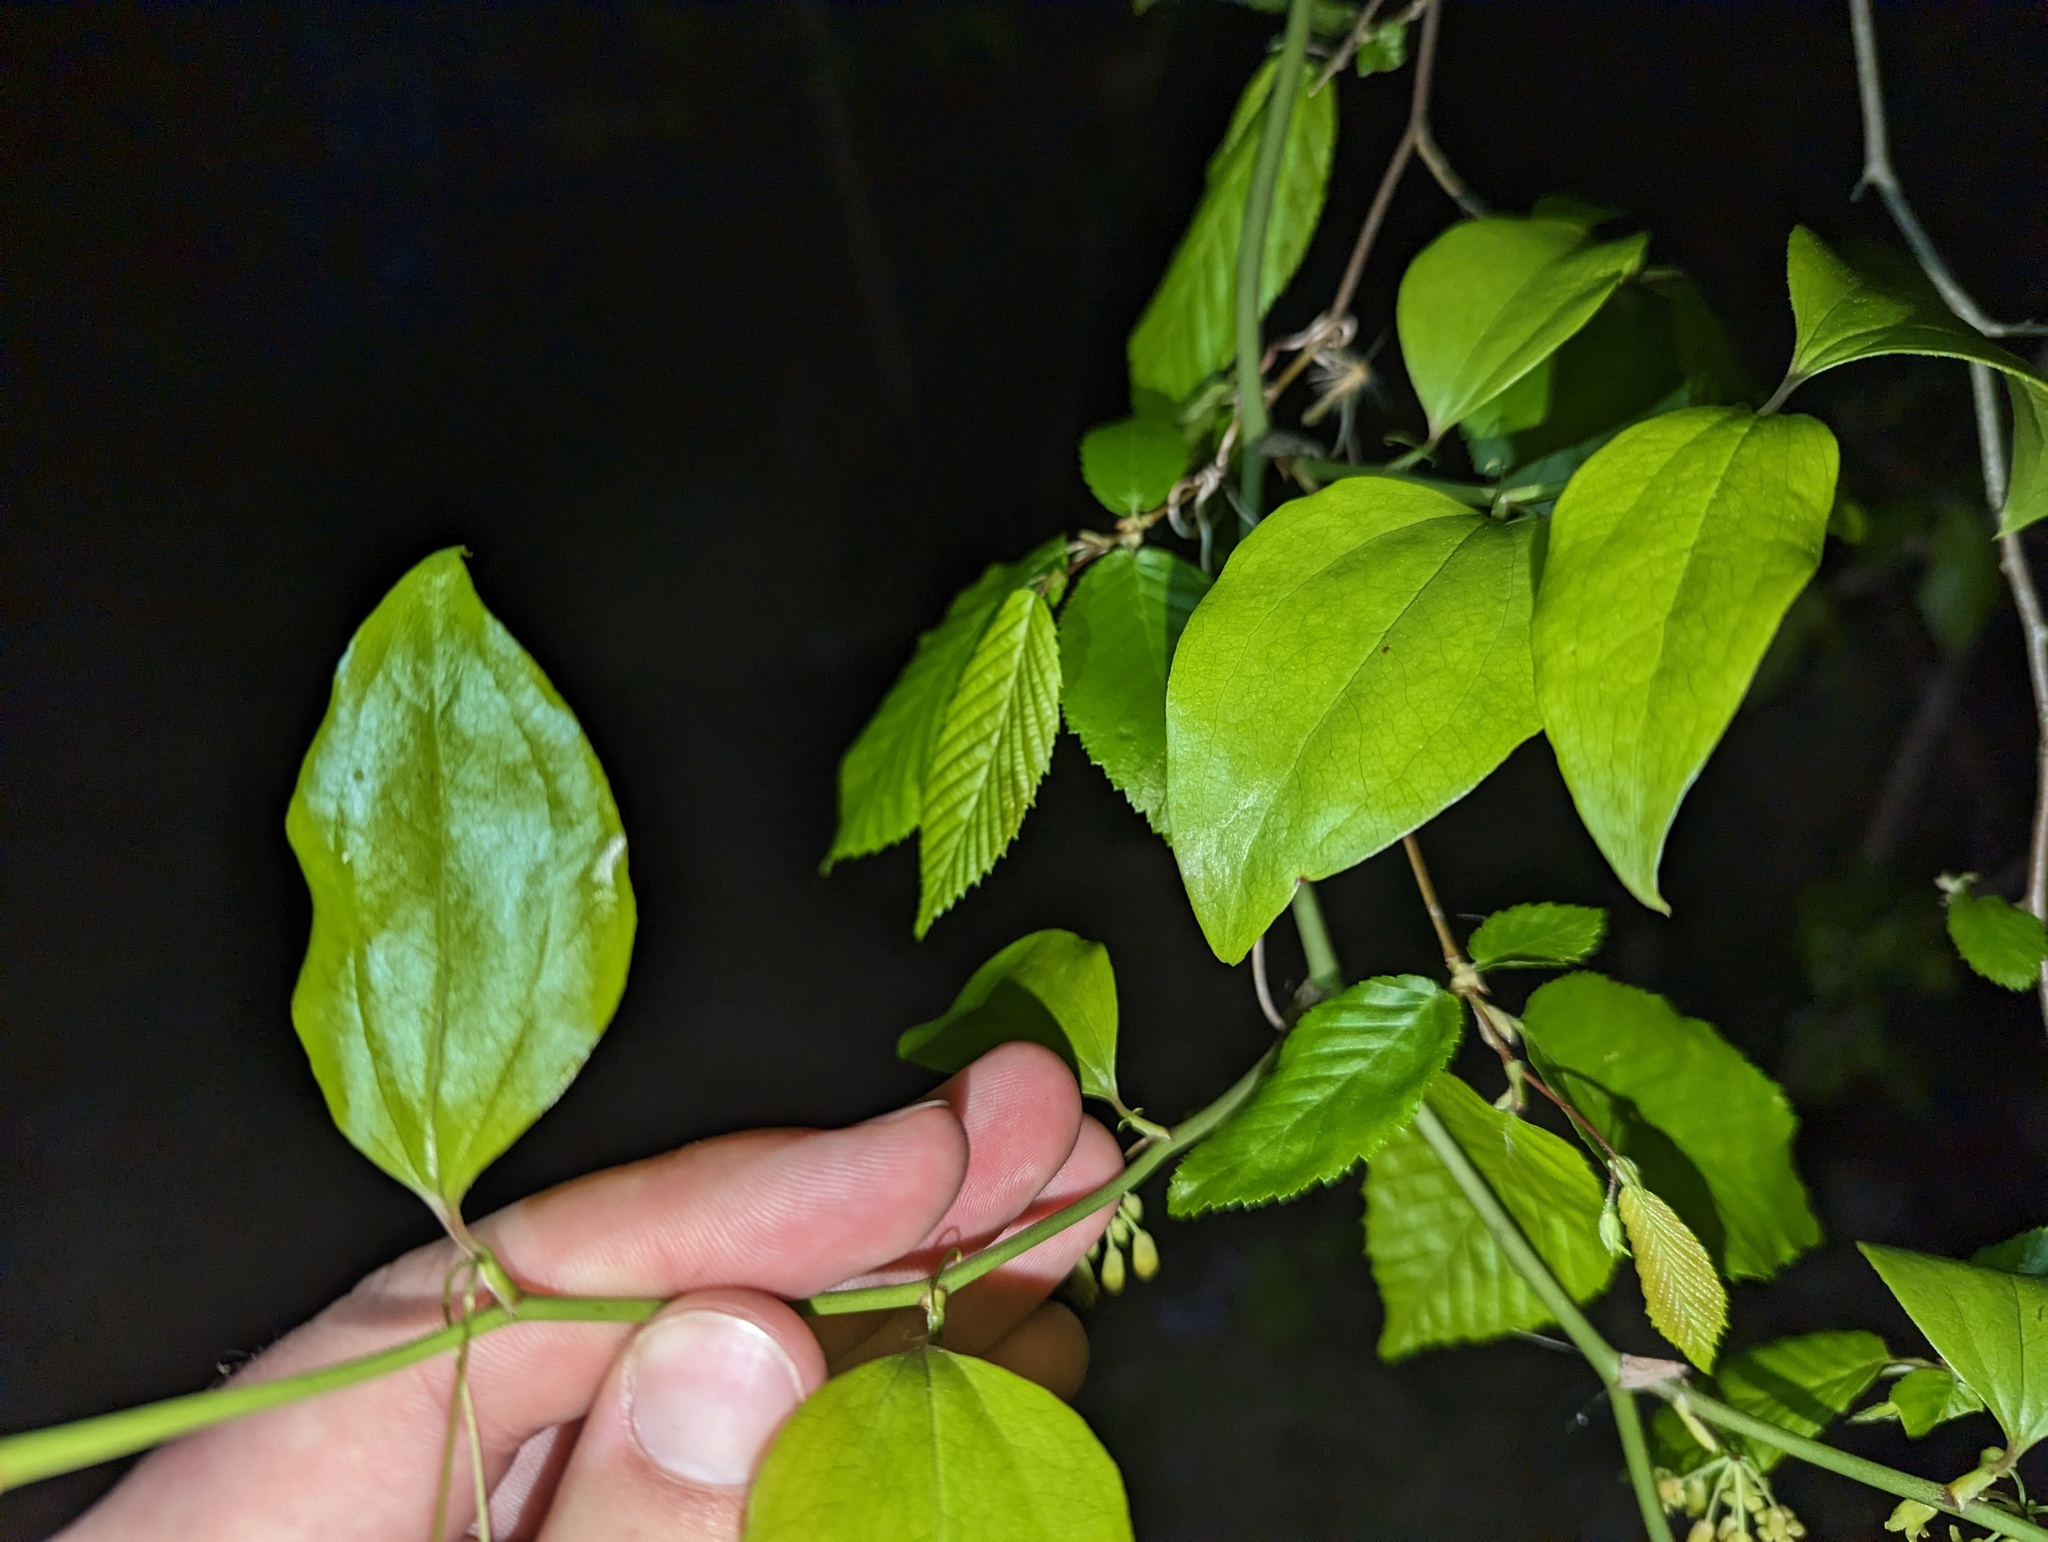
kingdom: Plantae
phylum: Tracheophyta
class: Liliopsida
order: Liliales
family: Smilacaceae
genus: Smilax
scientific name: Smilax rotundifolia
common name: Bullbriar
